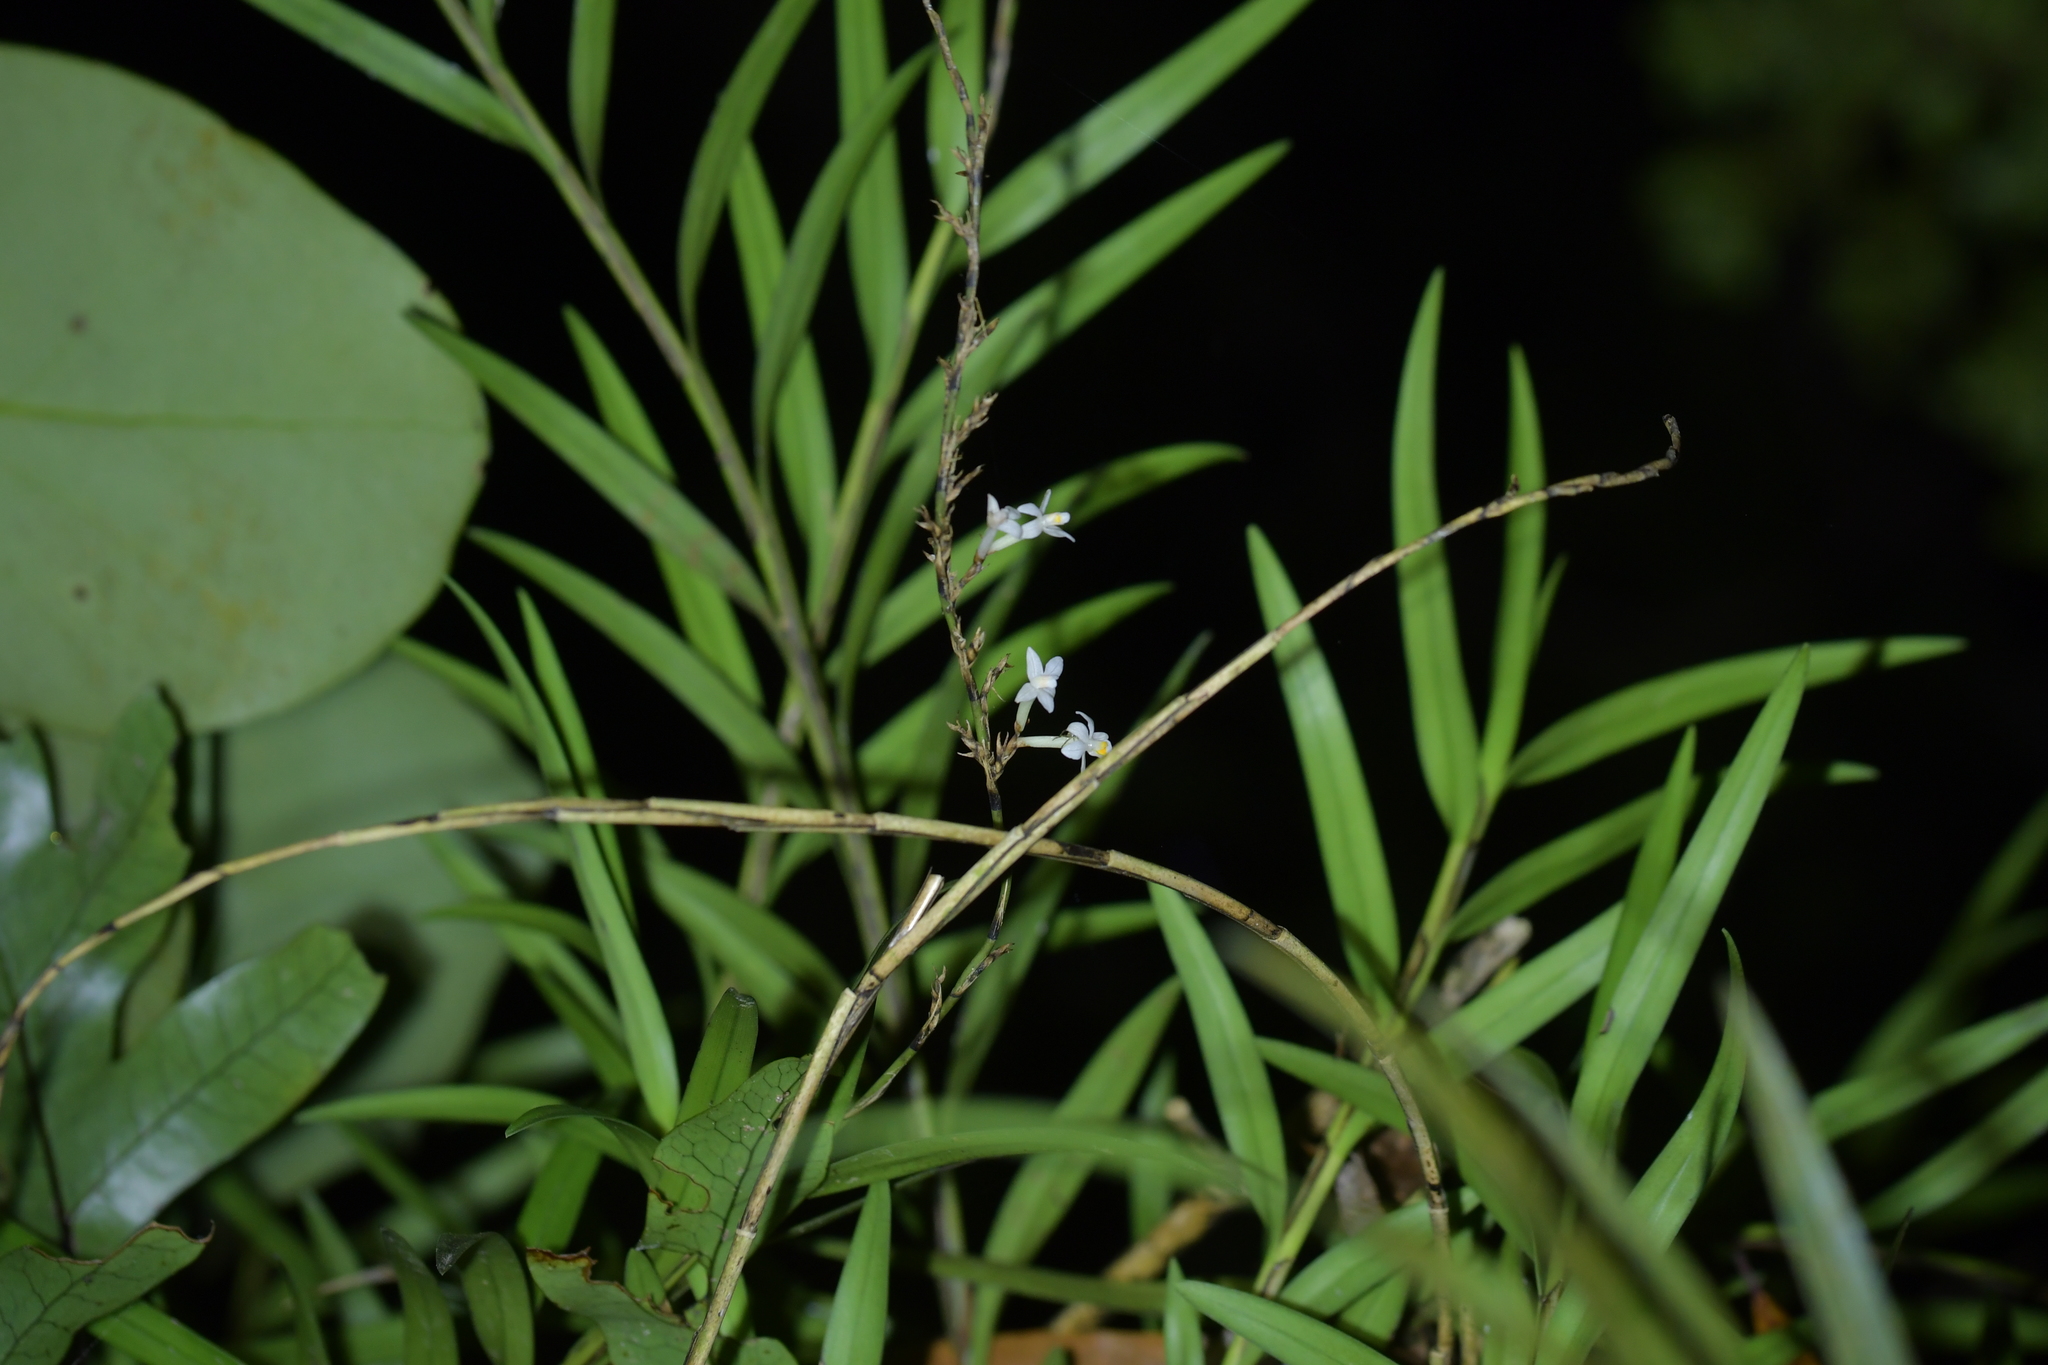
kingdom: Plantae
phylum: Tracheophyta
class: Liliopsida
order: Asparagales
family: Orchidaceae
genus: Earina
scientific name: Earina autumnalis
